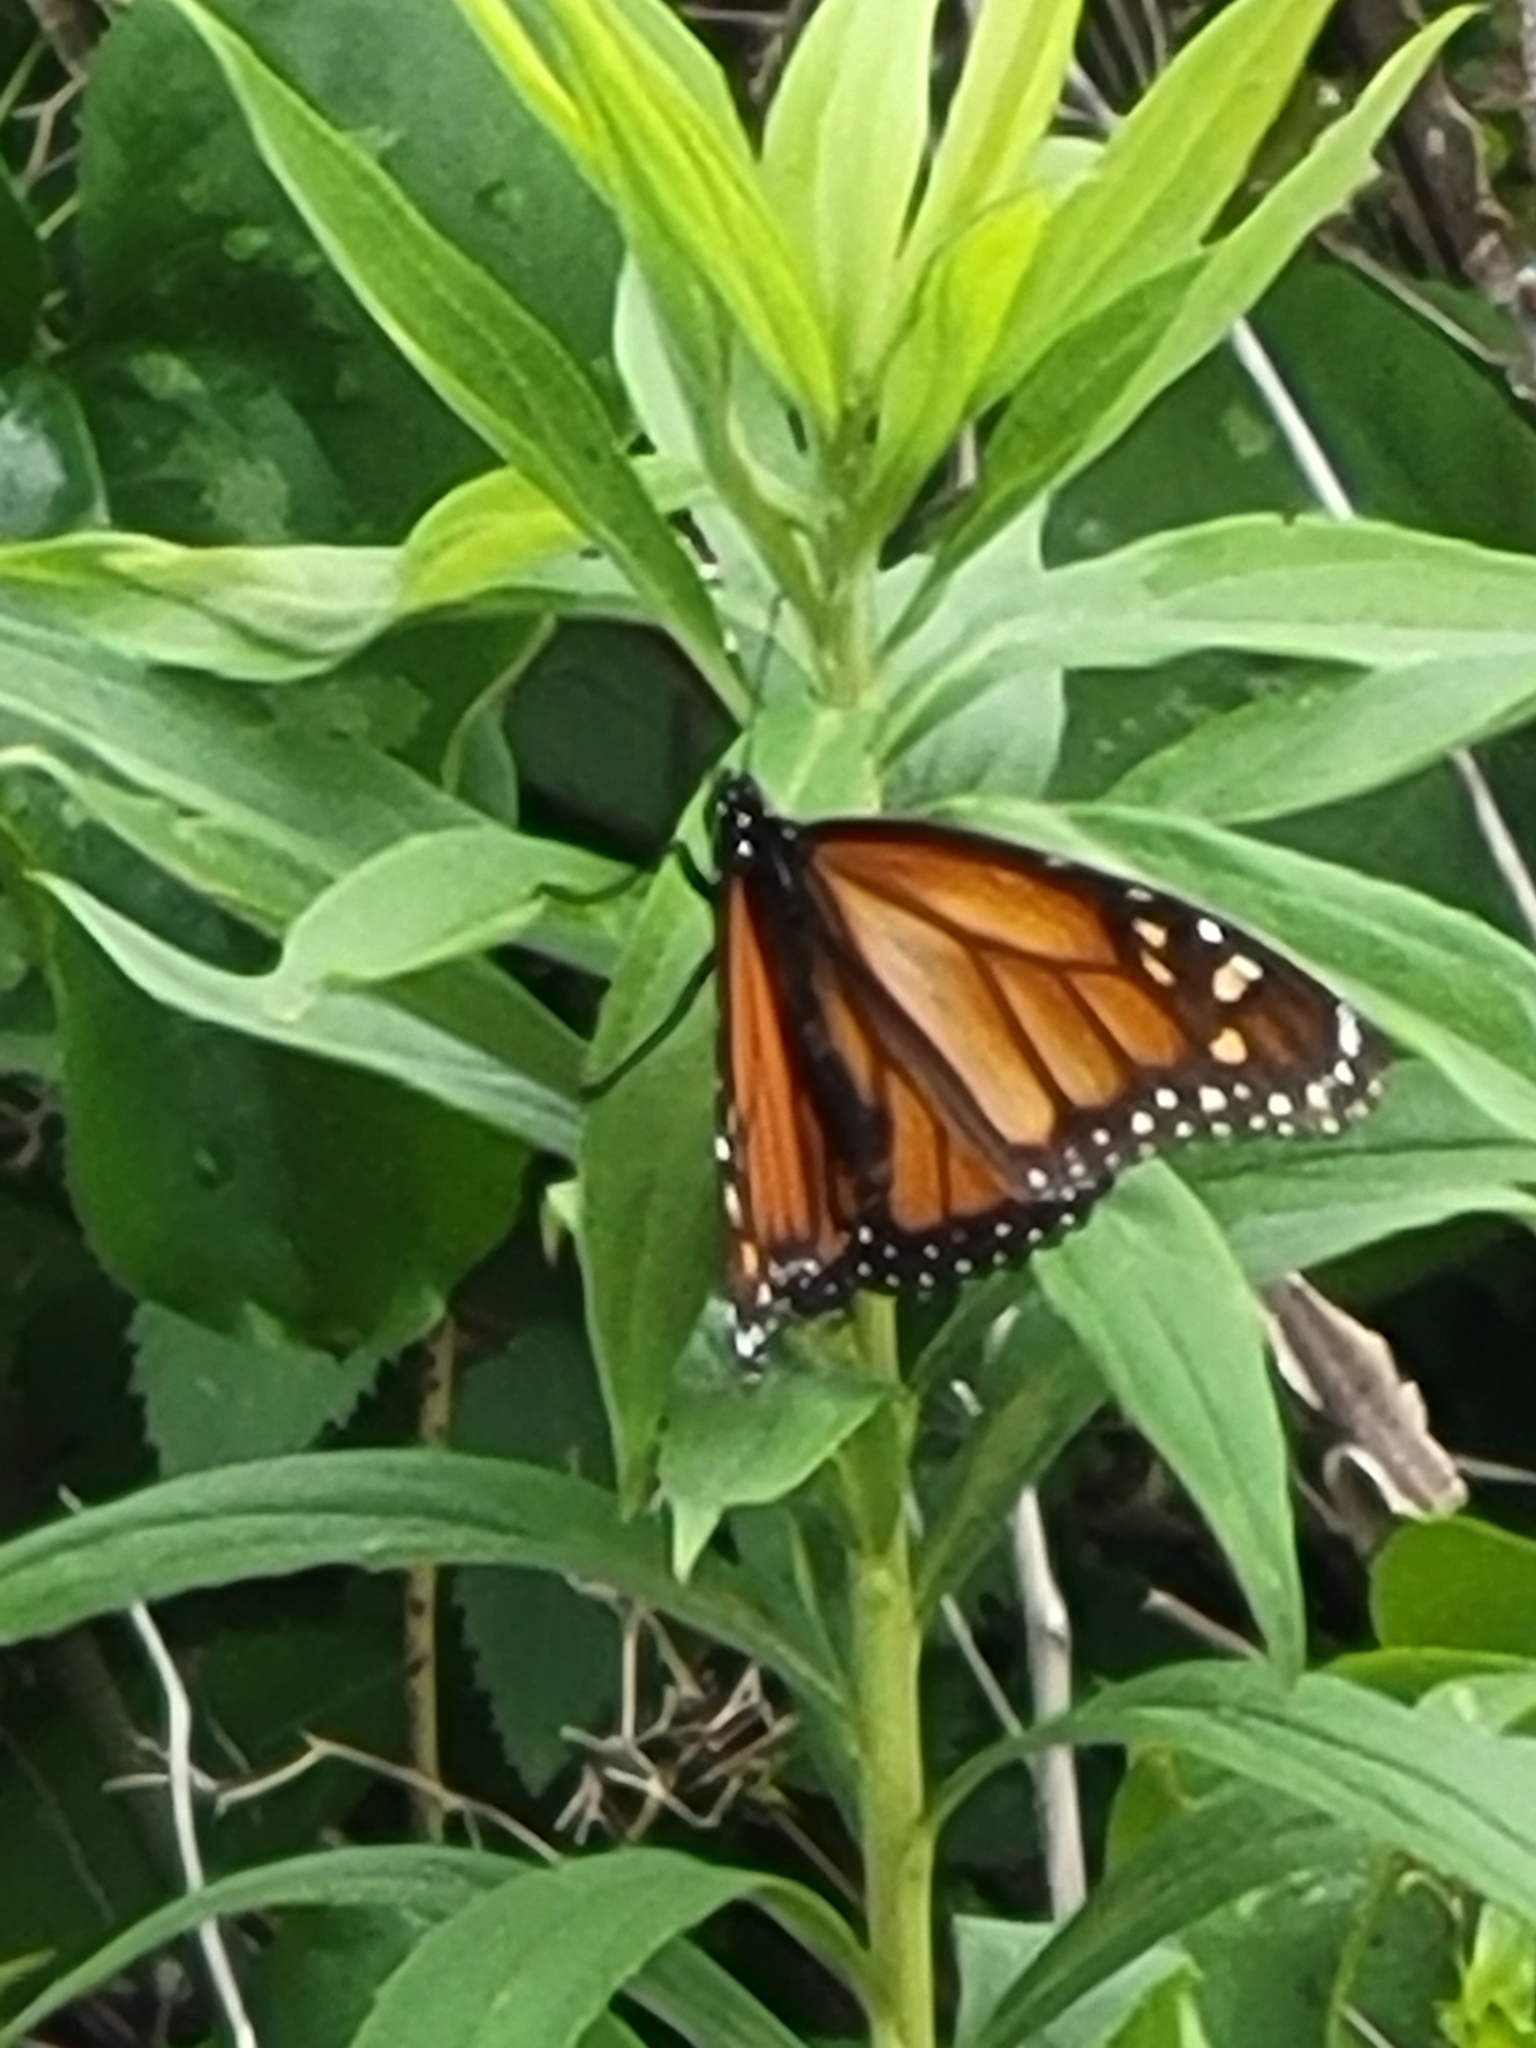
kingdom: Animalia
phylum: Arthropoda
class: Insecta
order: Lepidoptera
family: Nymphalidae
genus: Danaus
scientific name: Danaus plexippus
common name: Monarch
